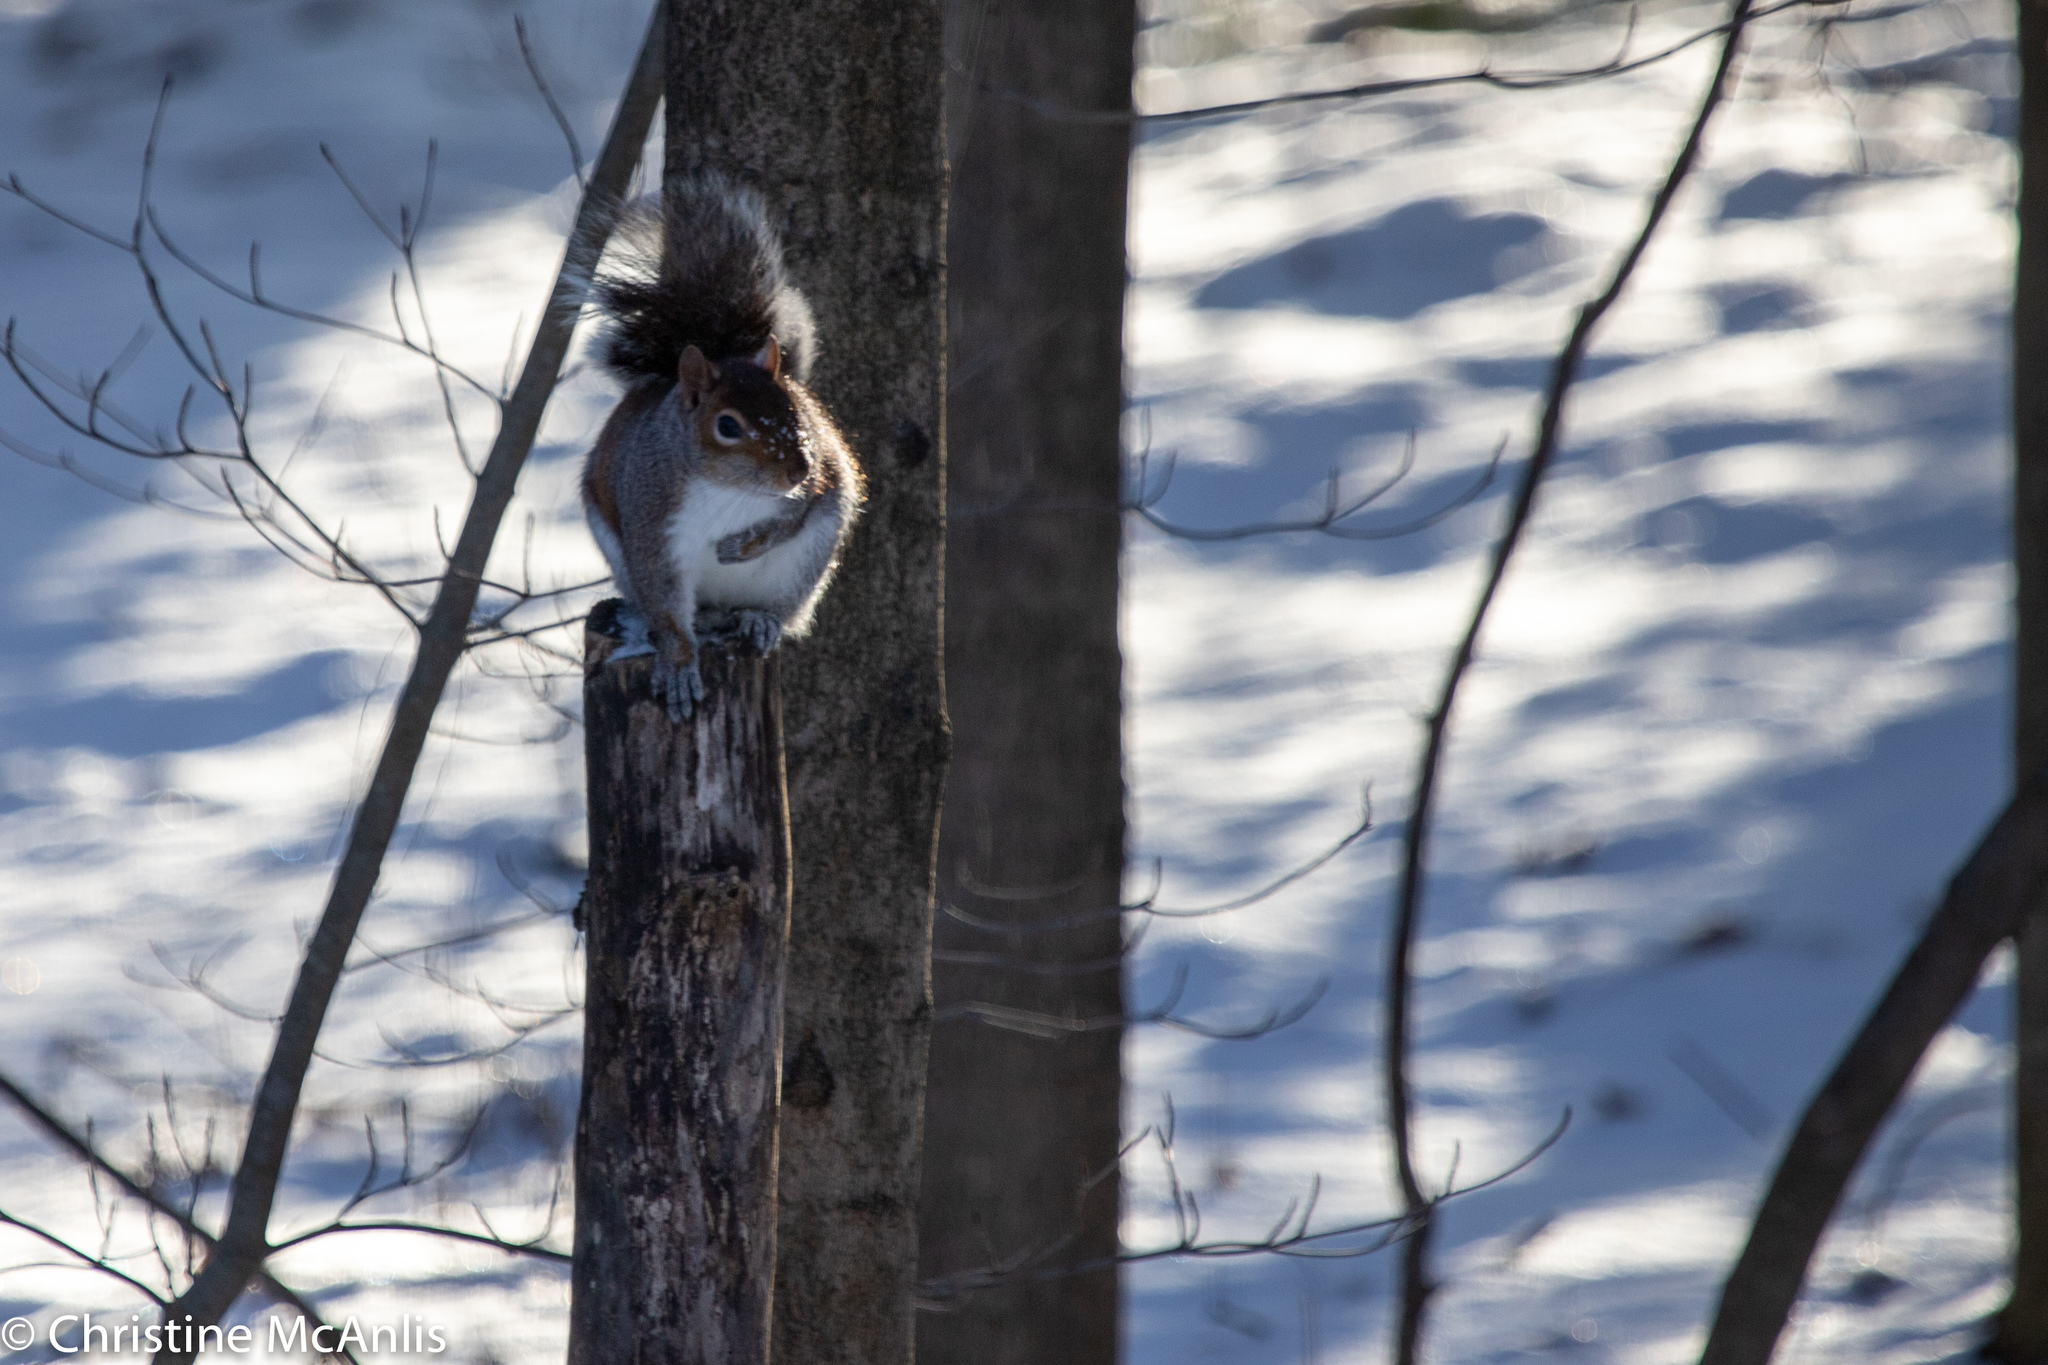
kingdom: Animalia
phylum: Chordata
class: Mammalia
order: Rodentia
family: Sciuridae
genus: Sciurus
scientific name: Sciurus carolinensis
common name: Eastern gray squirrel
